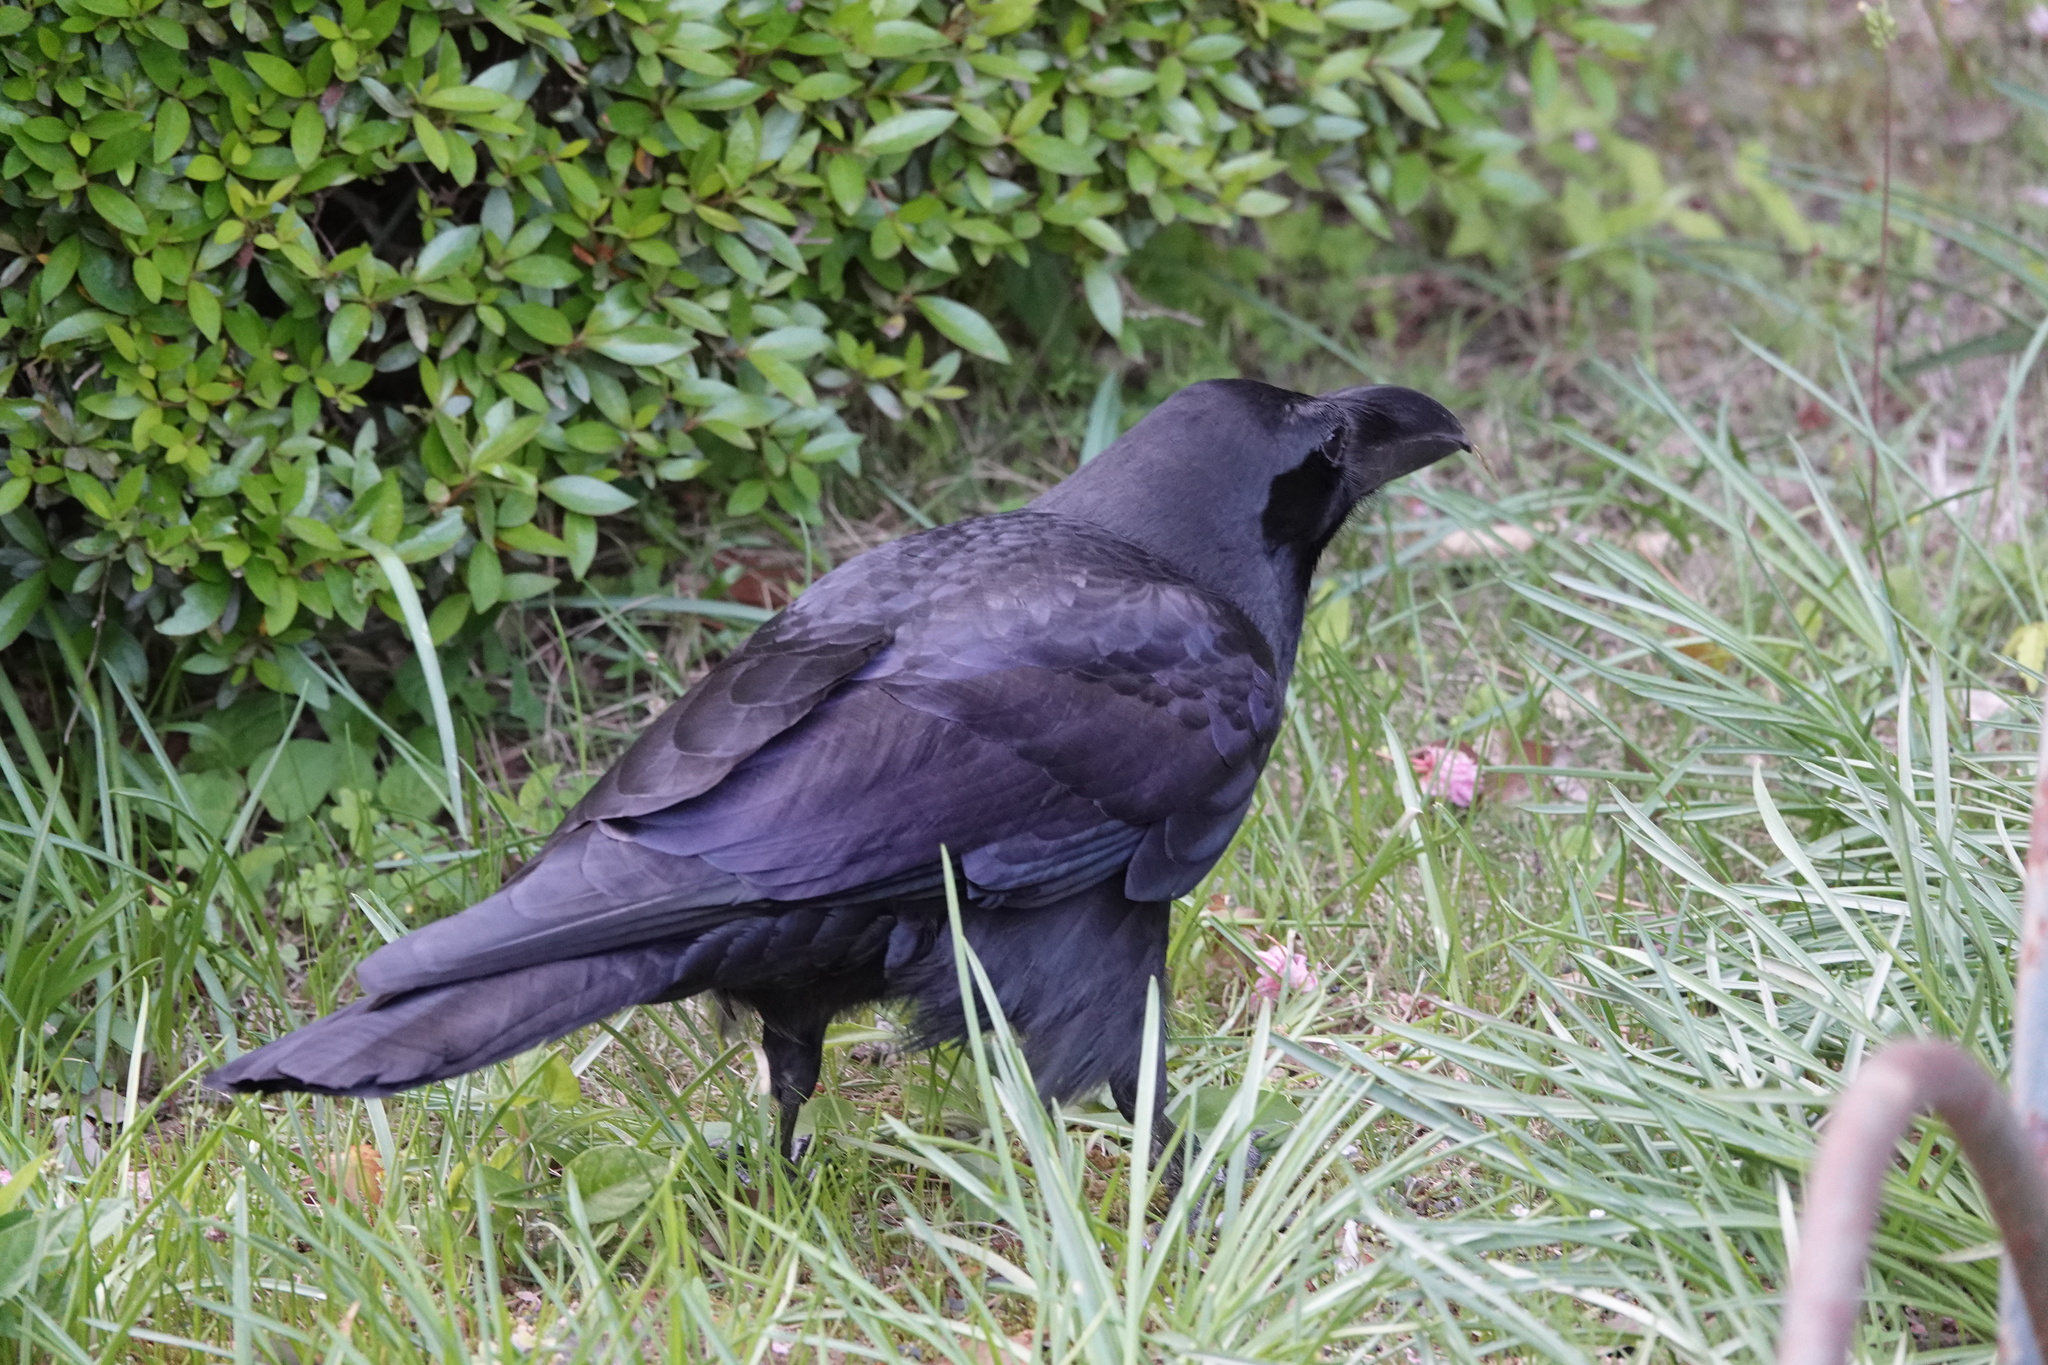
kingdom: Animalia
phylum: Chordata
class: Aves
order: Passeriformes
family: Corvidae
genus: Corvus
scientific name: Corvus macrorhynchos
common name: Large-billed crow
